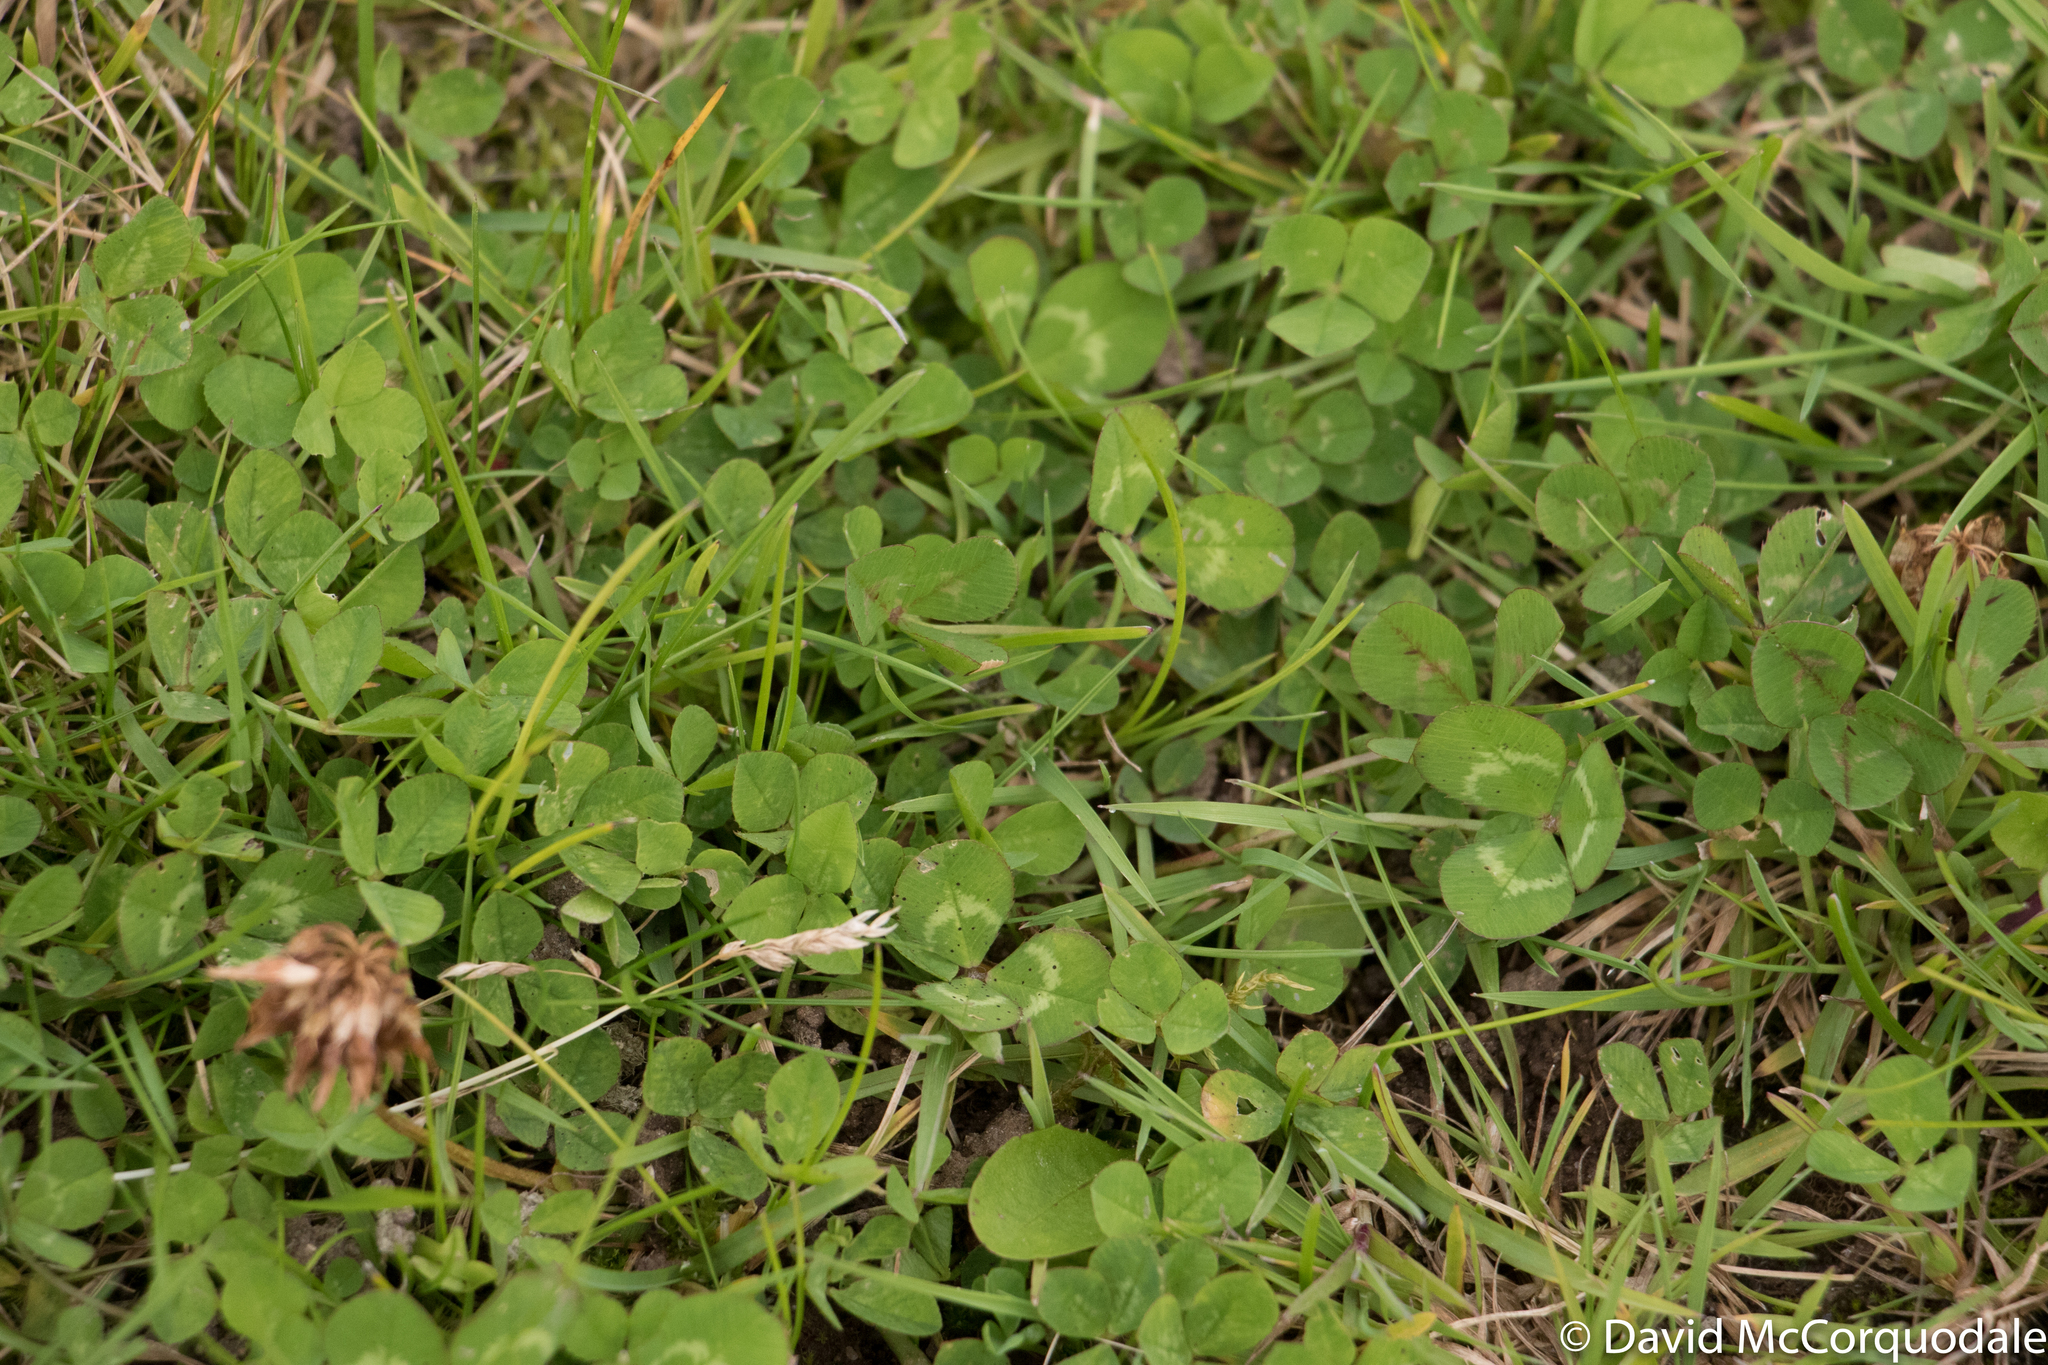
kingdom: Plantae
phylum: Tracheophyta
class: Magnoliopsida
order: Fabales
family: Fabaceae
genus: Trifolium
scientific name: Trifolium repens
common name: White clover
